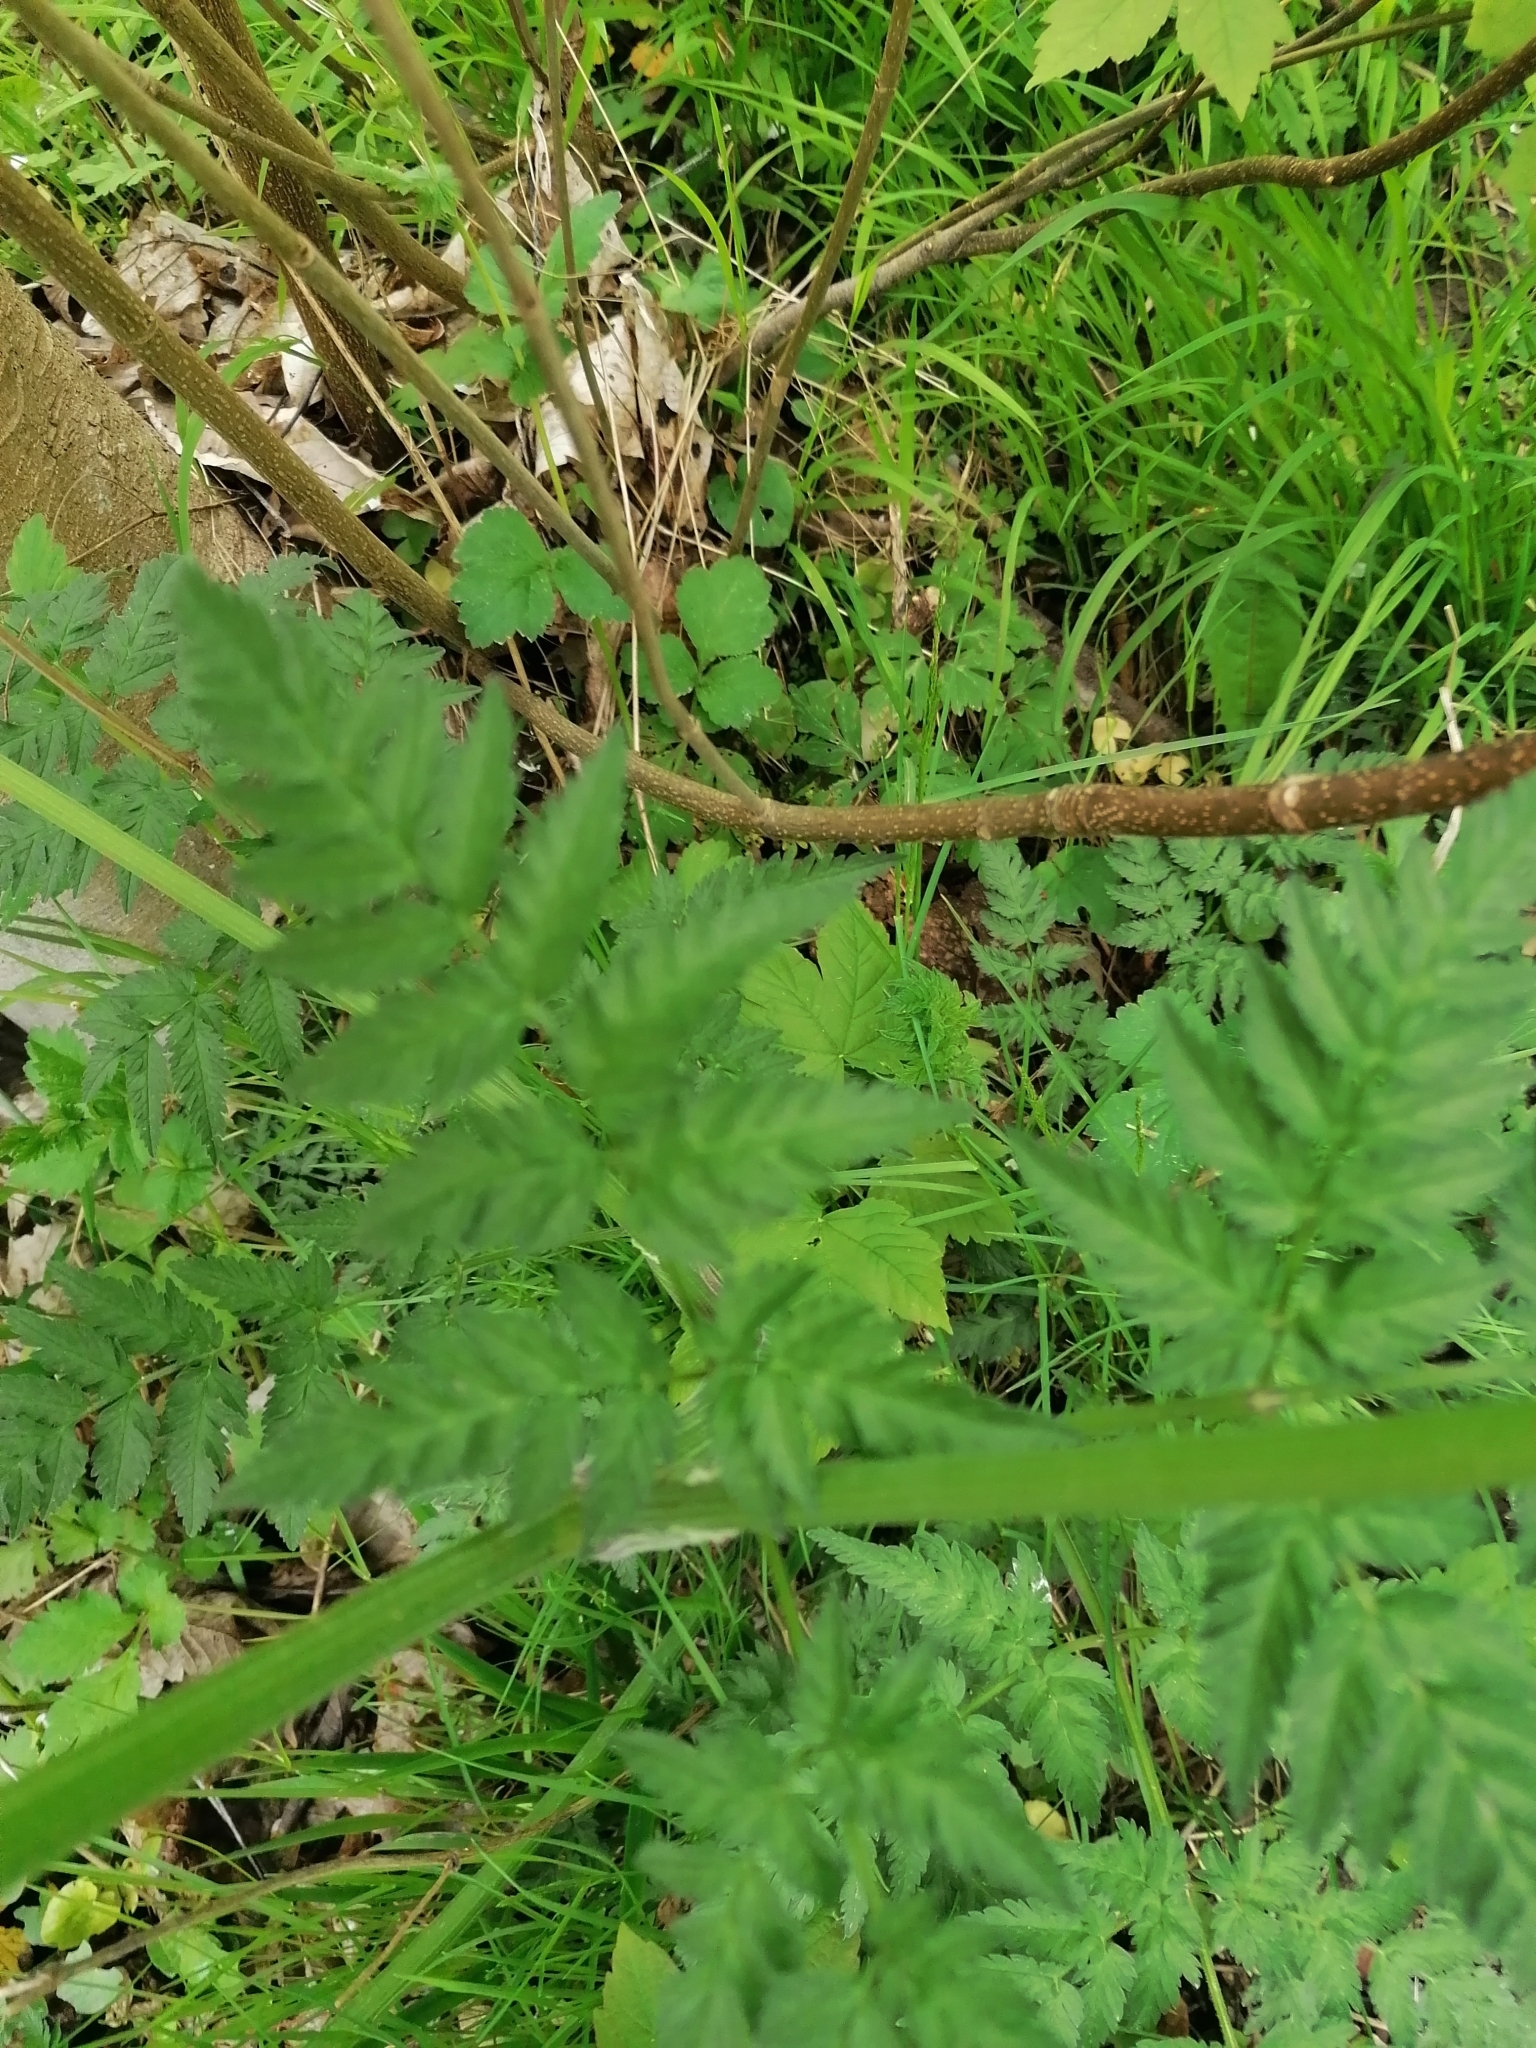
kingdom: Plantae
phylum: Tracheophyta
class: Magnoliopsida
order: Apiales
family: Apiaceae
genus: Anthriscus
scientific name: Anthriscus sylvestris
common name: Cow parsley
